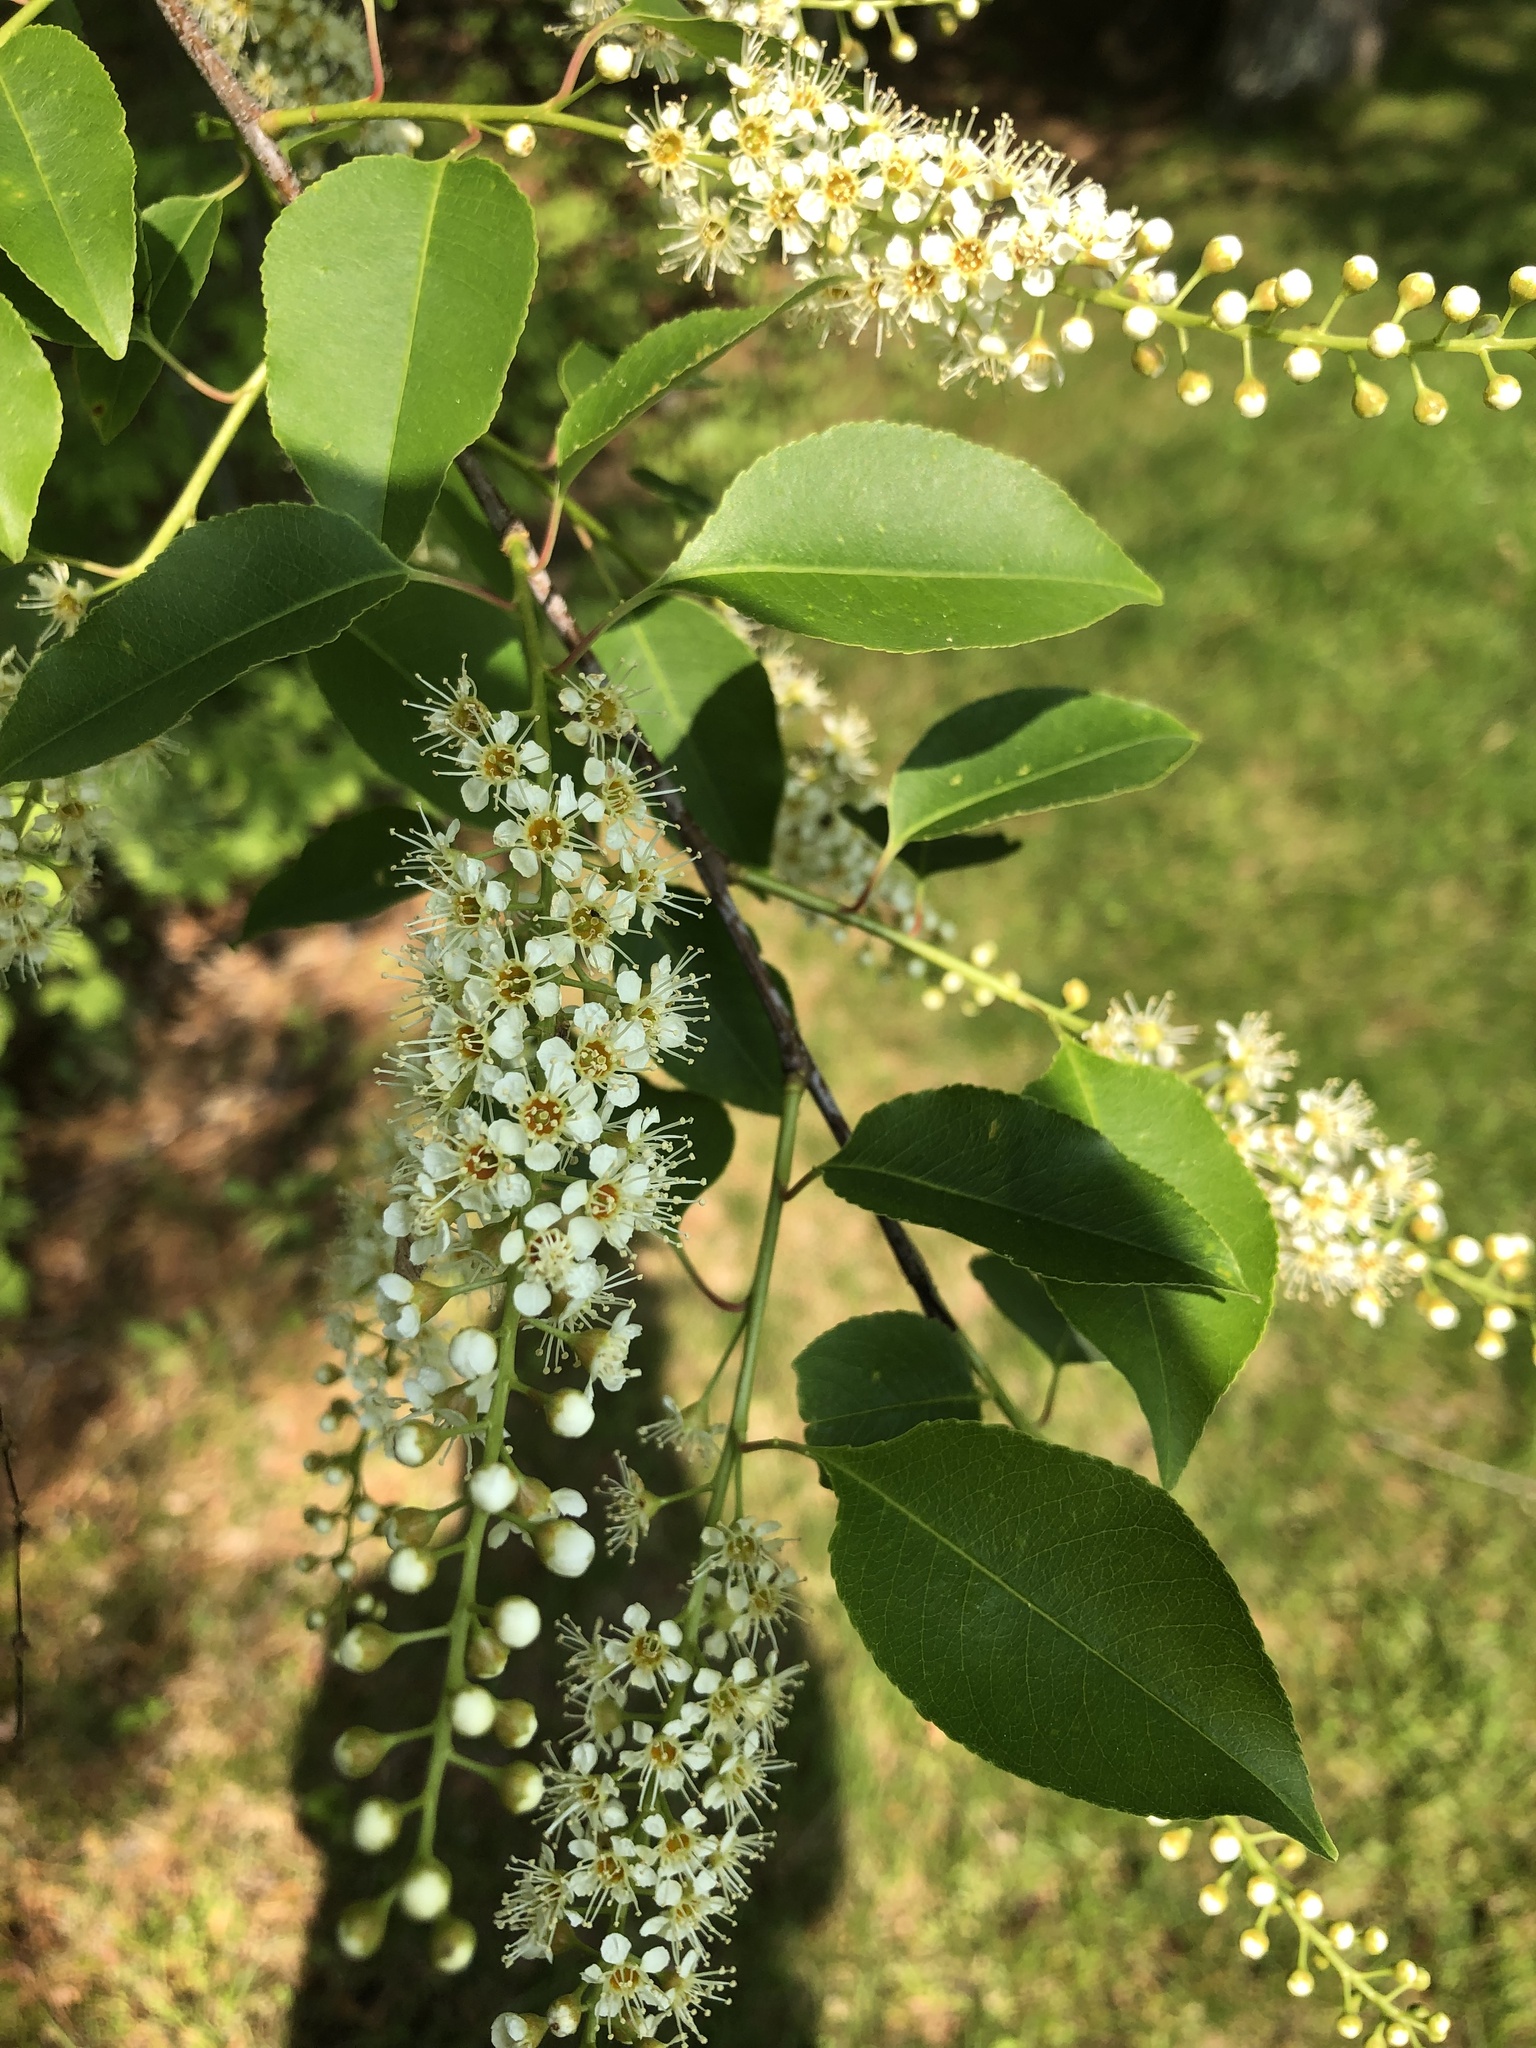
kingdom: Plantae
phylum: Tracheophyta
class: Magnoliopsida
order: Rosales
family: Rosaceae
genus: Prunus
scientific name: Prunus serotina
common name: Black cherry
